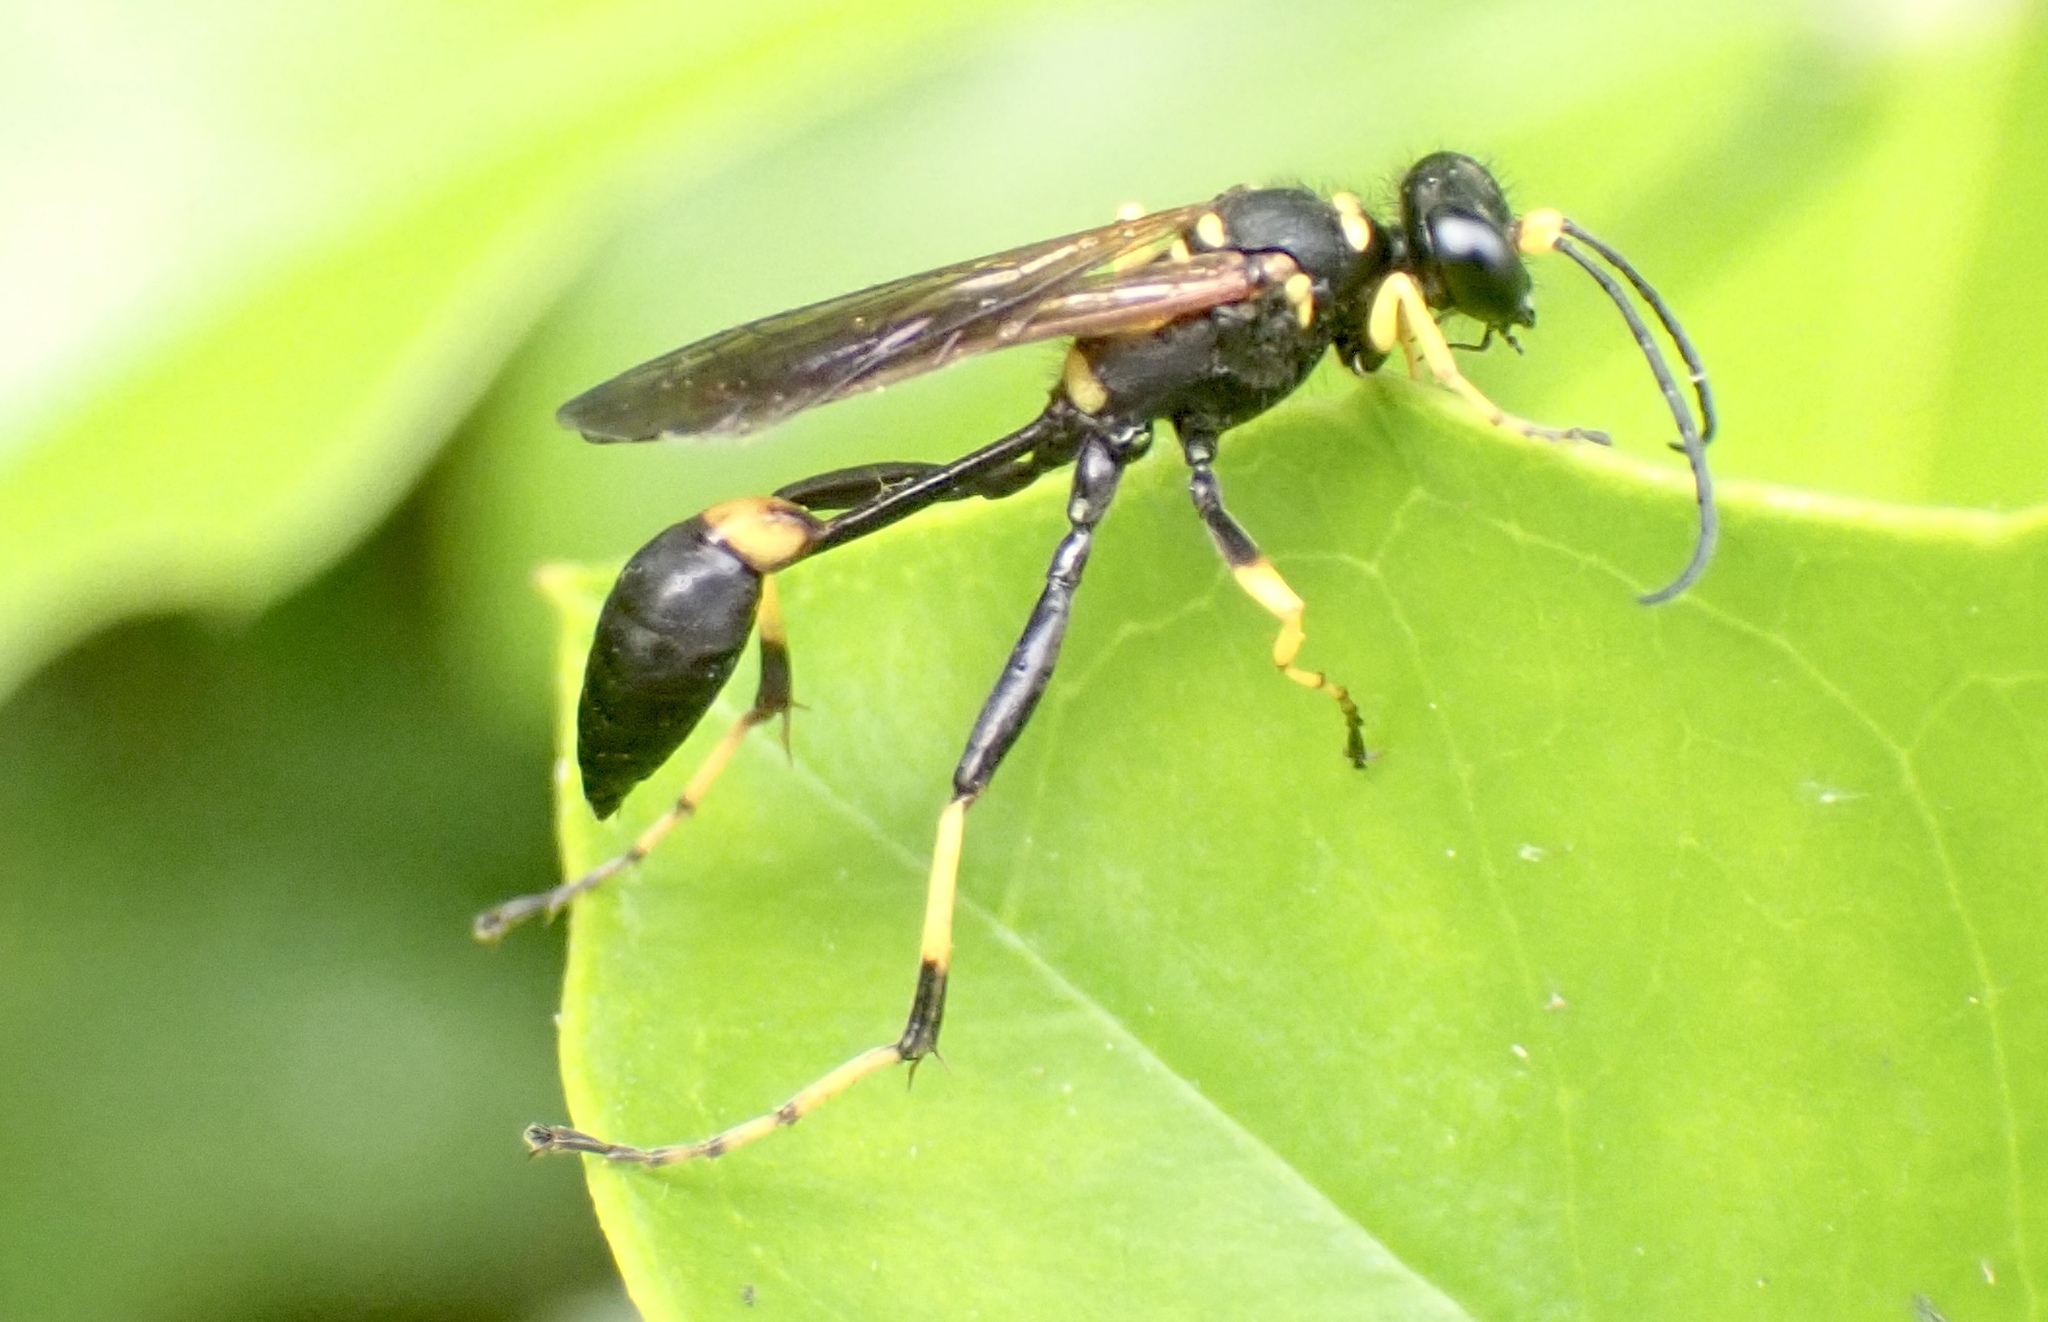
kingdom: Animalia
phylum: Arthropoda
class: Insecta
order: Hymenoptera
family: Sphecidae
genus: Sceliphron
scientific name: Sceliphron caementarium
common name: Mud dauber
